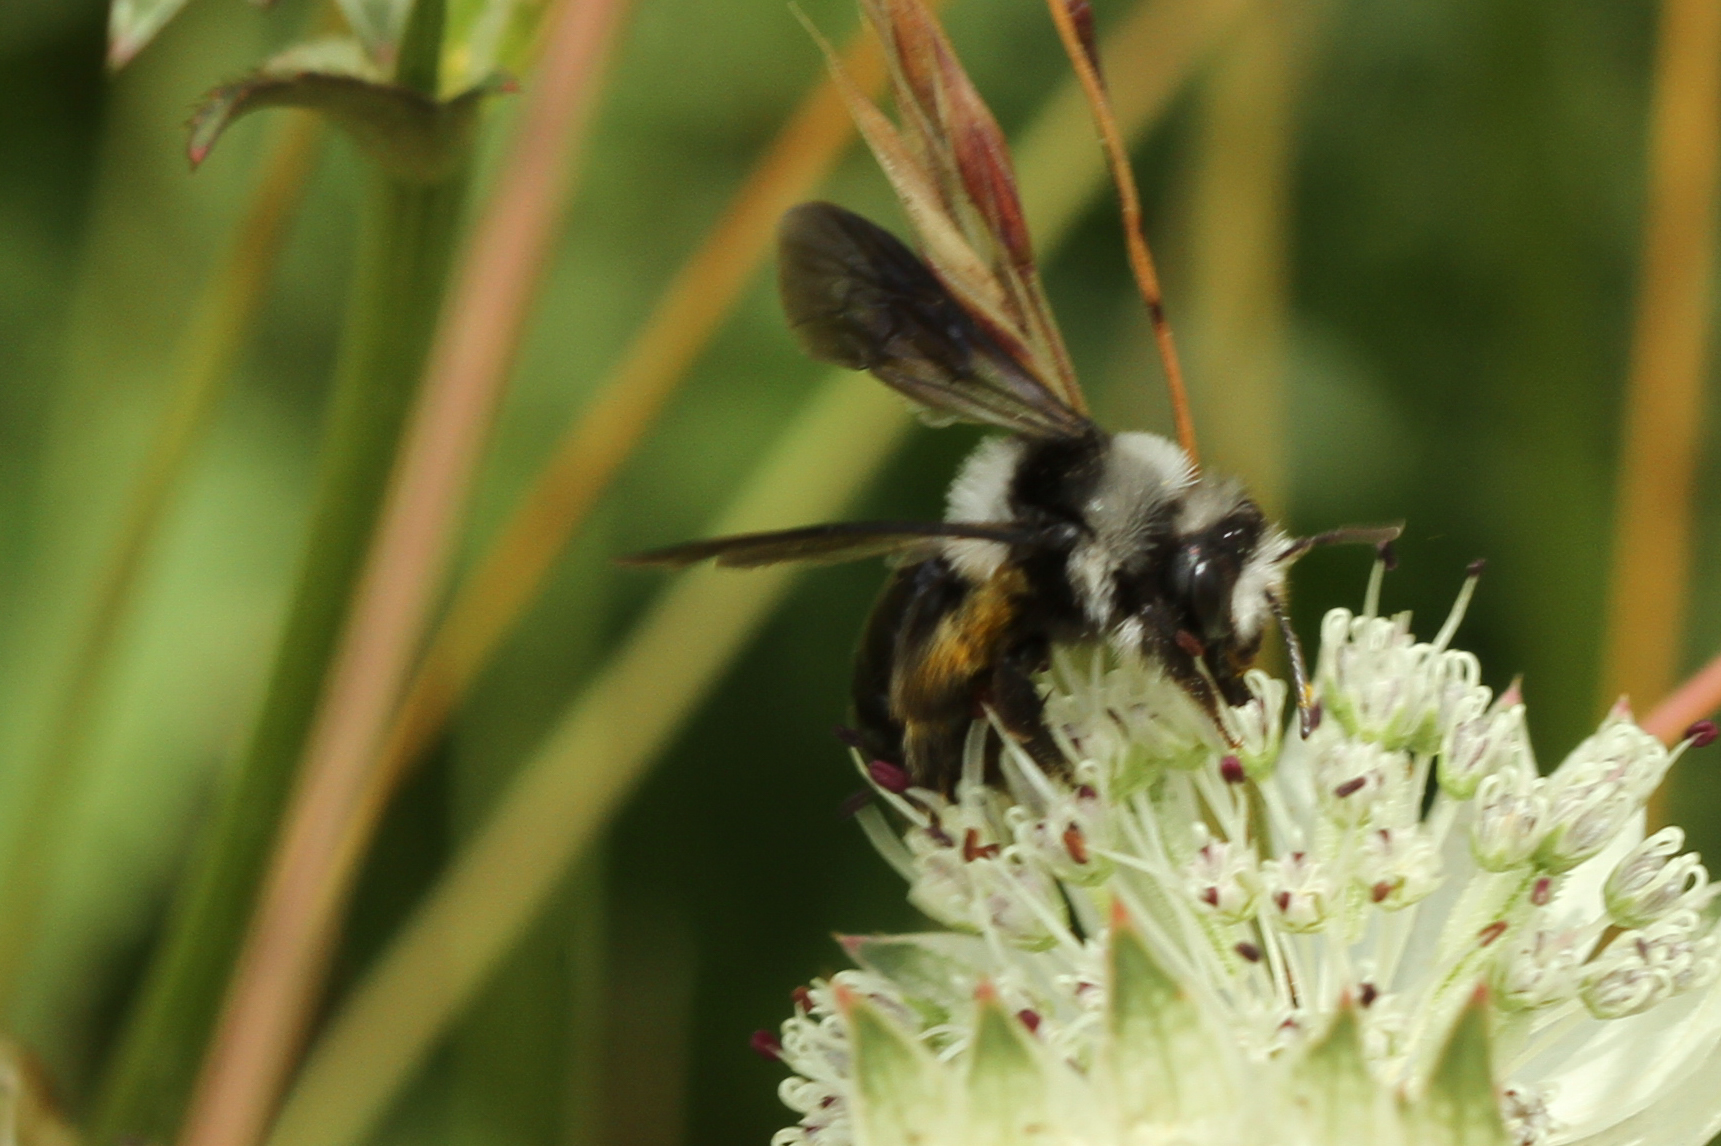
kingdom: Animalia
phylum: Arthropoda
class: Insecta
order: Hymenoptera
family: Andrenidae
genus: Andrena
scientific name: Andrena cineraria
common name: Ashy mining bee
